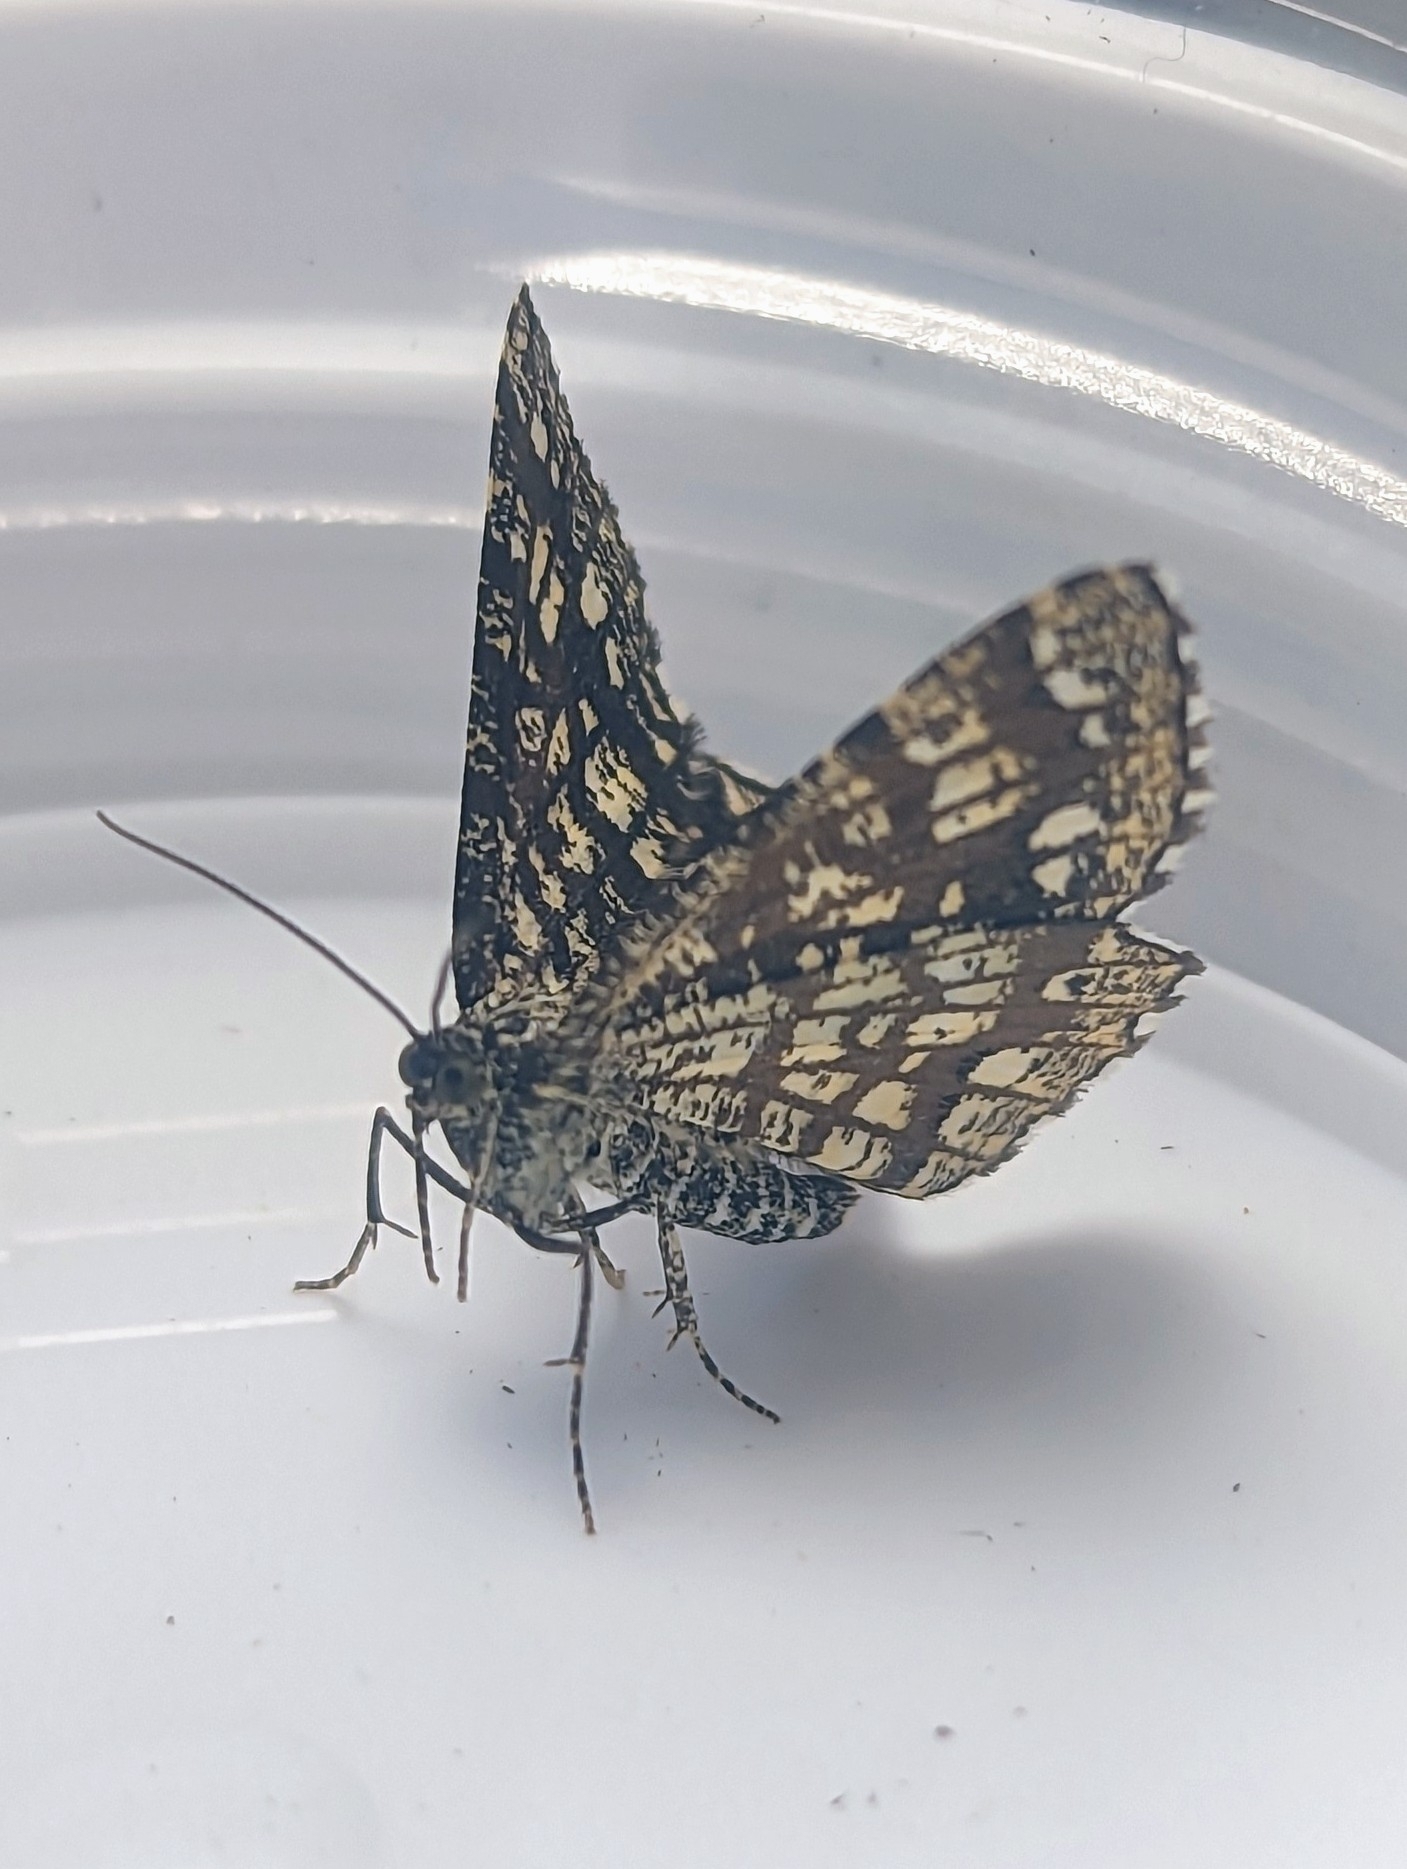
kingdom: Animalia
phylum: Arthropoda
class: Insecta
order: Lepidoptera
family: Geometridae
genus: Chiasmia
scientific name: Chiasmia clathrata
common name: Latticed heath
